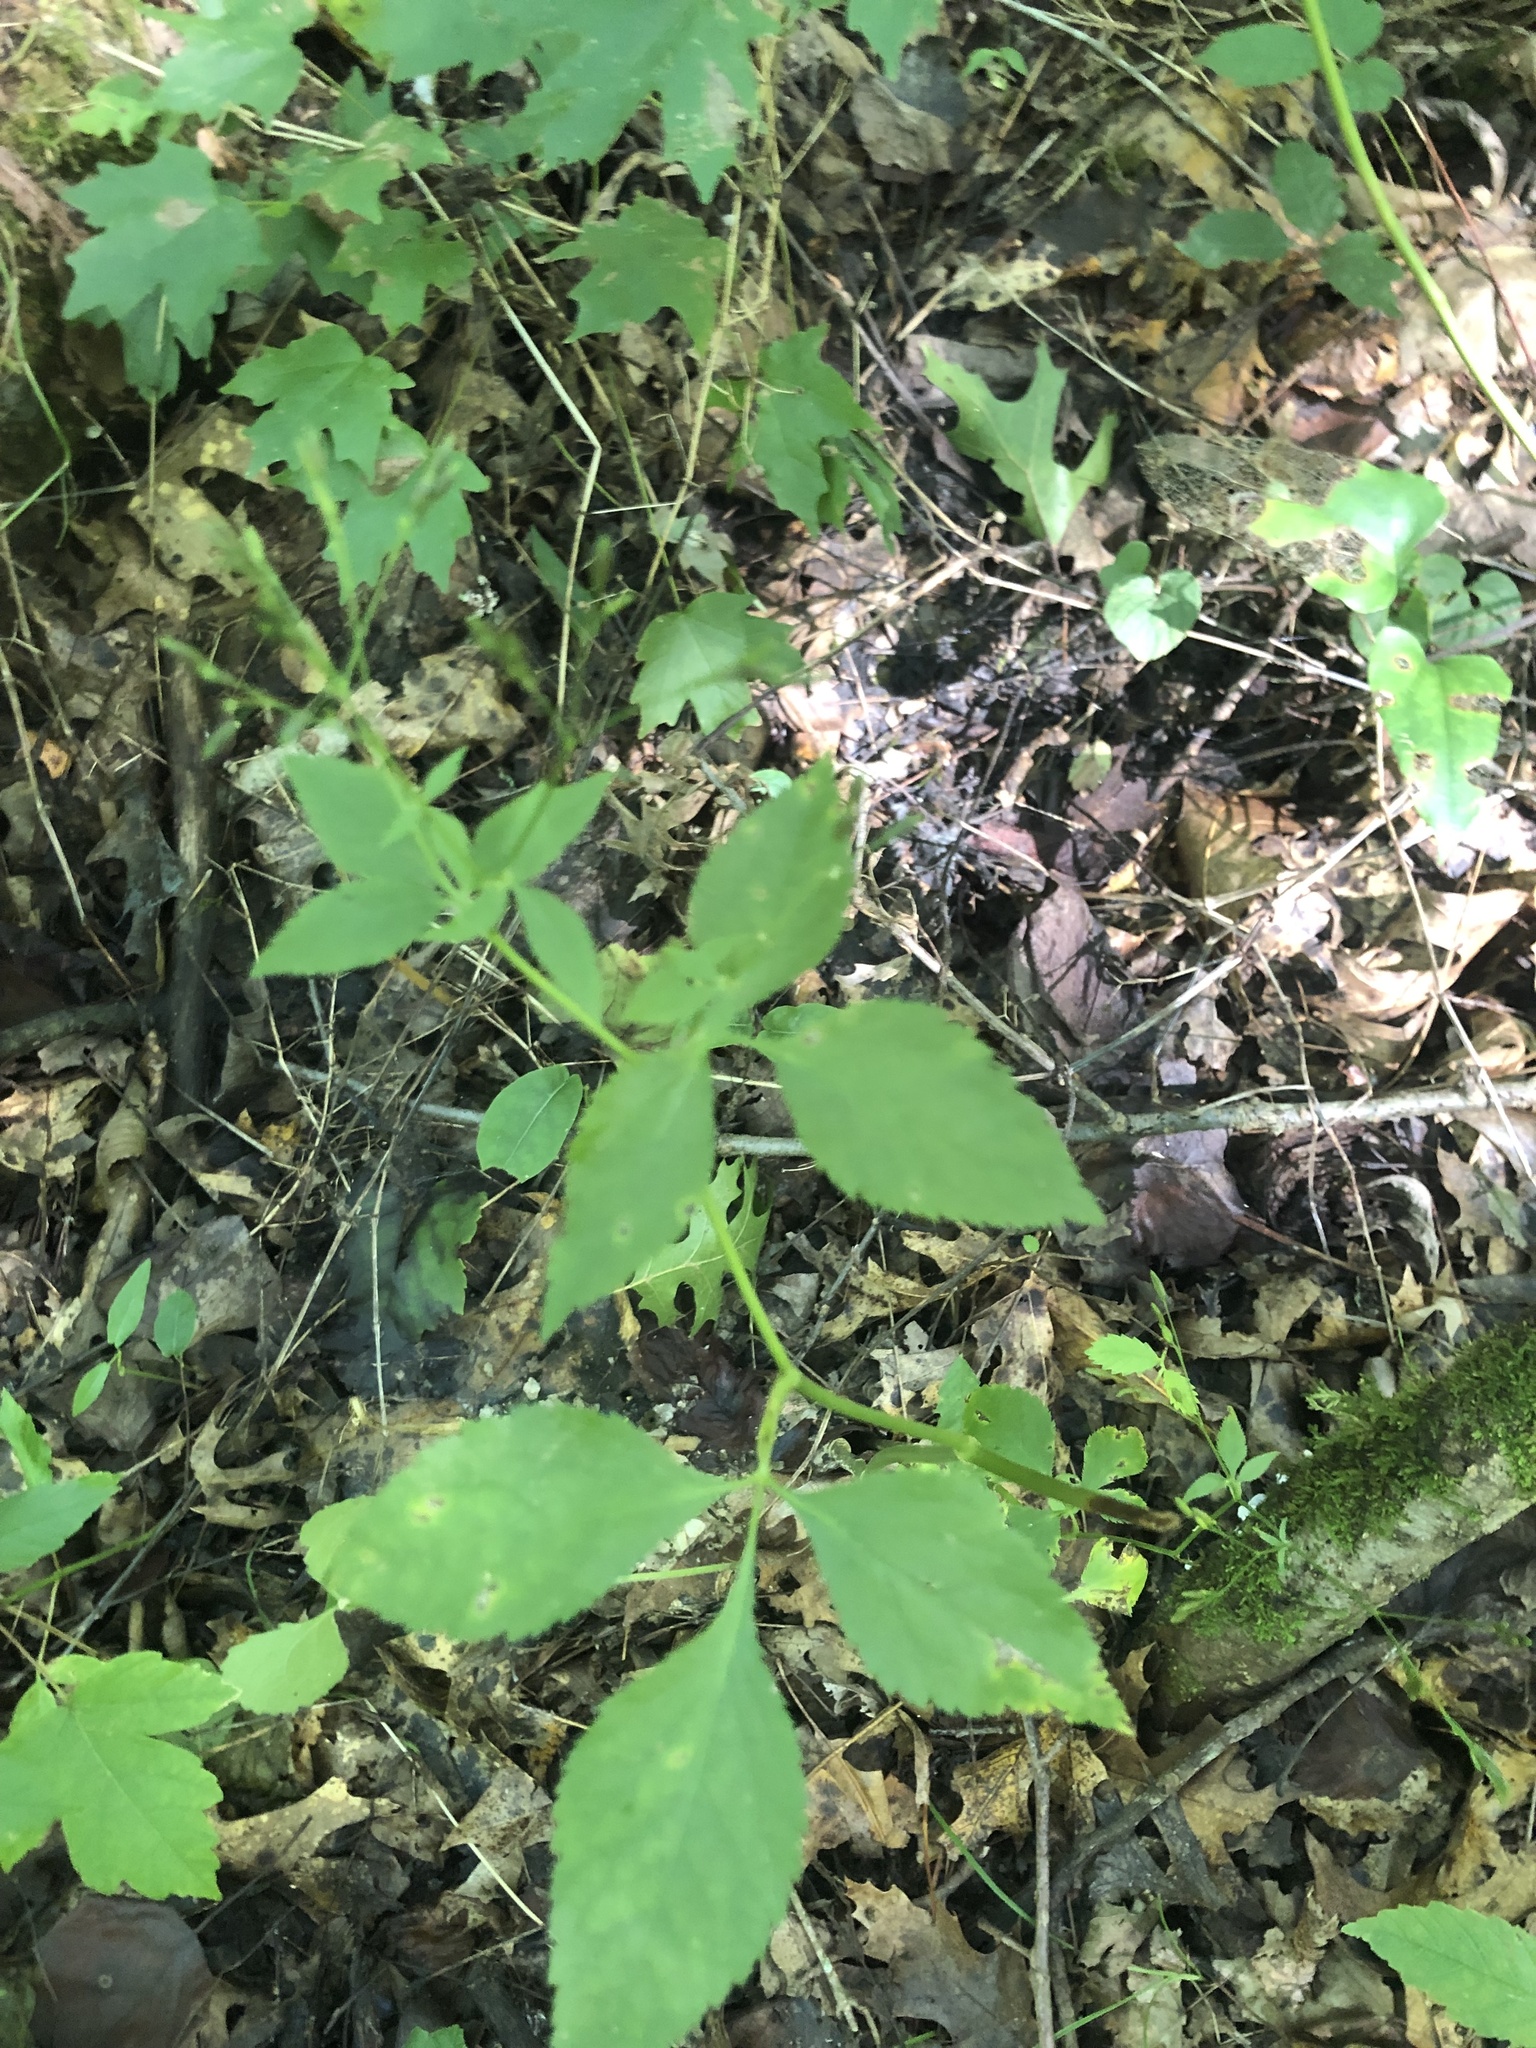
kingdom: Plantae
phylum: Tracheophyta
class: Magnoliopsida
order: Apiales
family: Apiaceae
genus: Cryptotaenia
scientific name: Cryptotaenia canadensis
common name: Honewort
